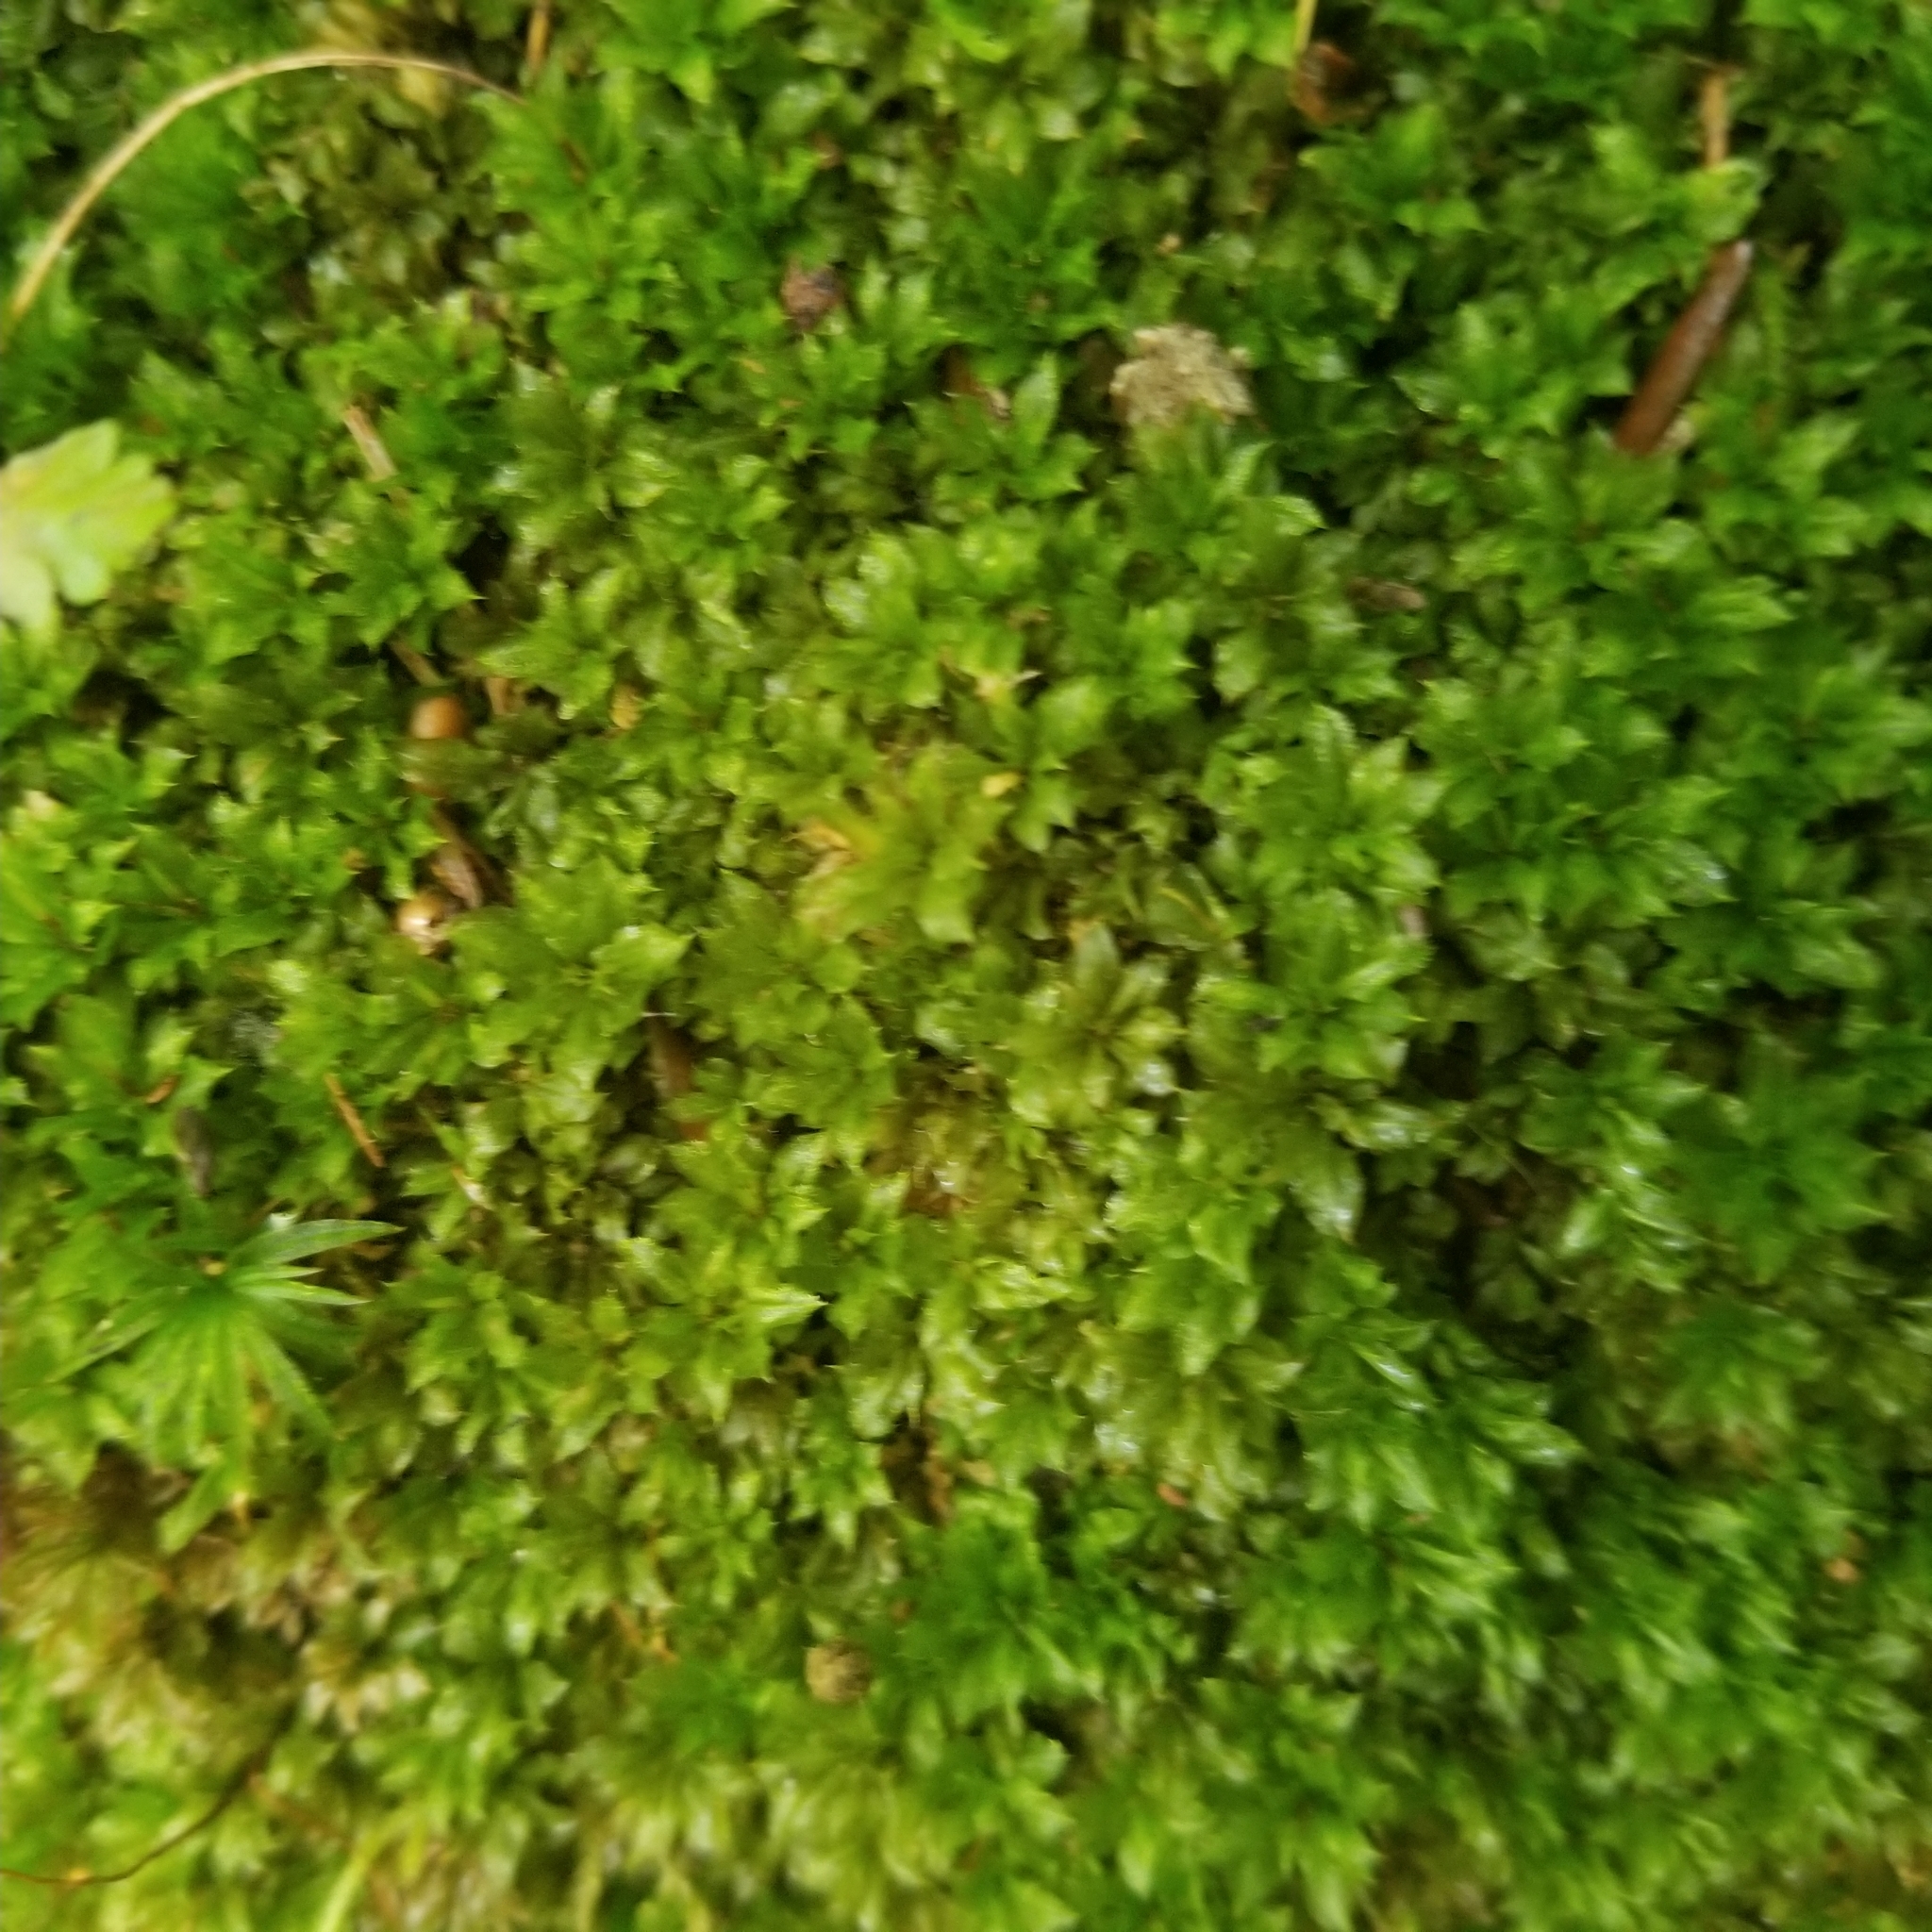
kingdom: Plantae
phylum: Bryophyta
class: Bryopsida
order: Bryales
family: Mniaceae
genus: Plagiomnium
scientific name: Plagiomnium cuspidatum
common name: Woodsy leafy moss
